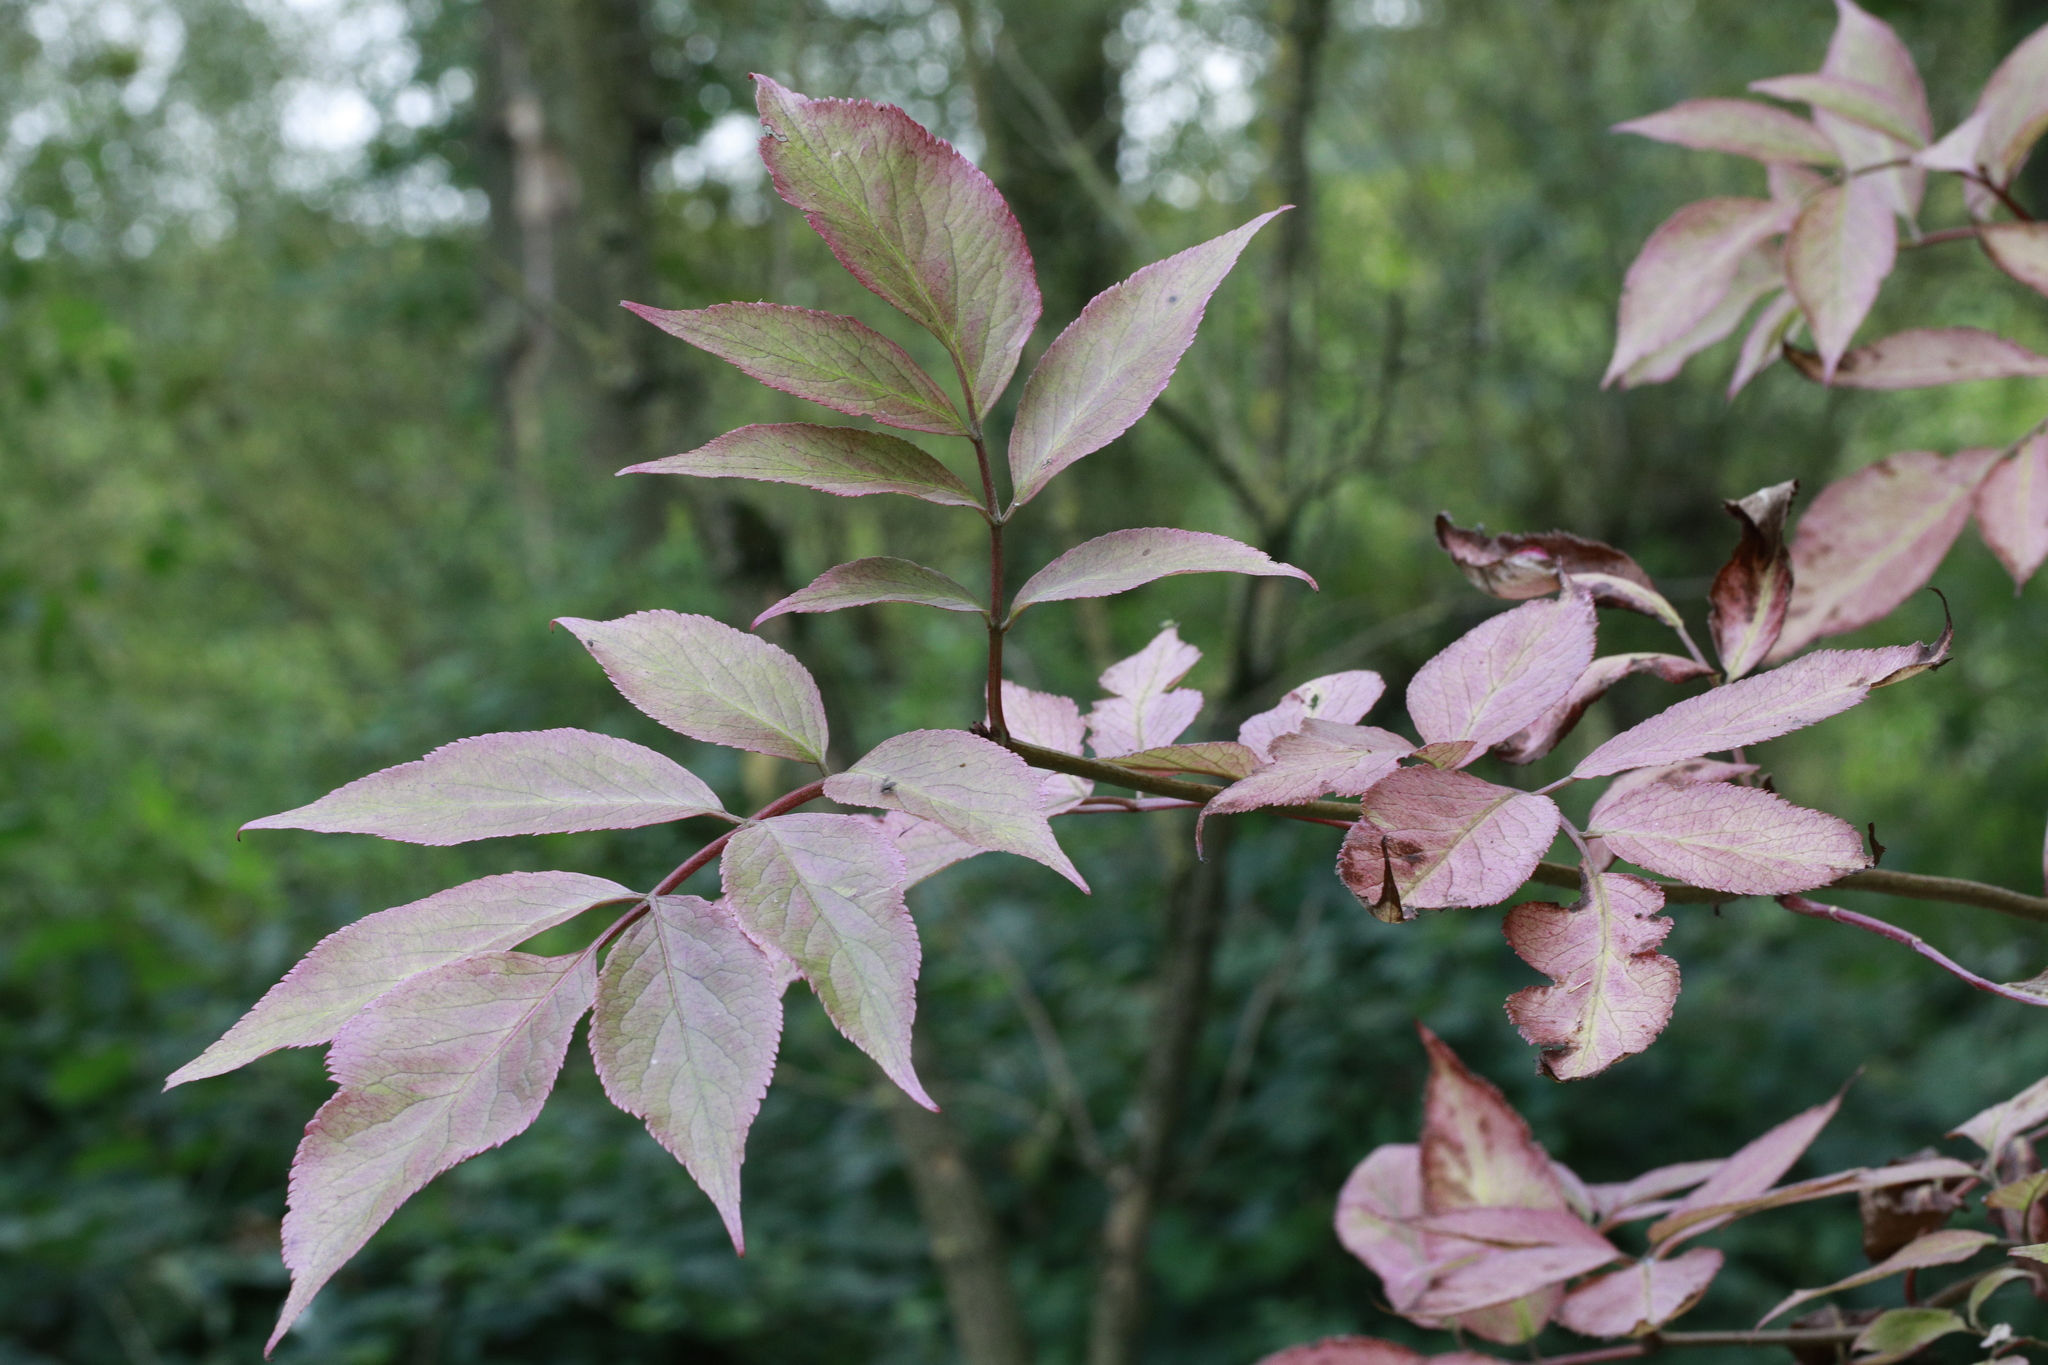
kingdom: Plantae
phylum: Tracheophyta
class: Magnoliopsida
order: Dipsacales
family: Viburnaceae
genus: Sambucus
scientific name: Sambucus nigra
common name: Elder
